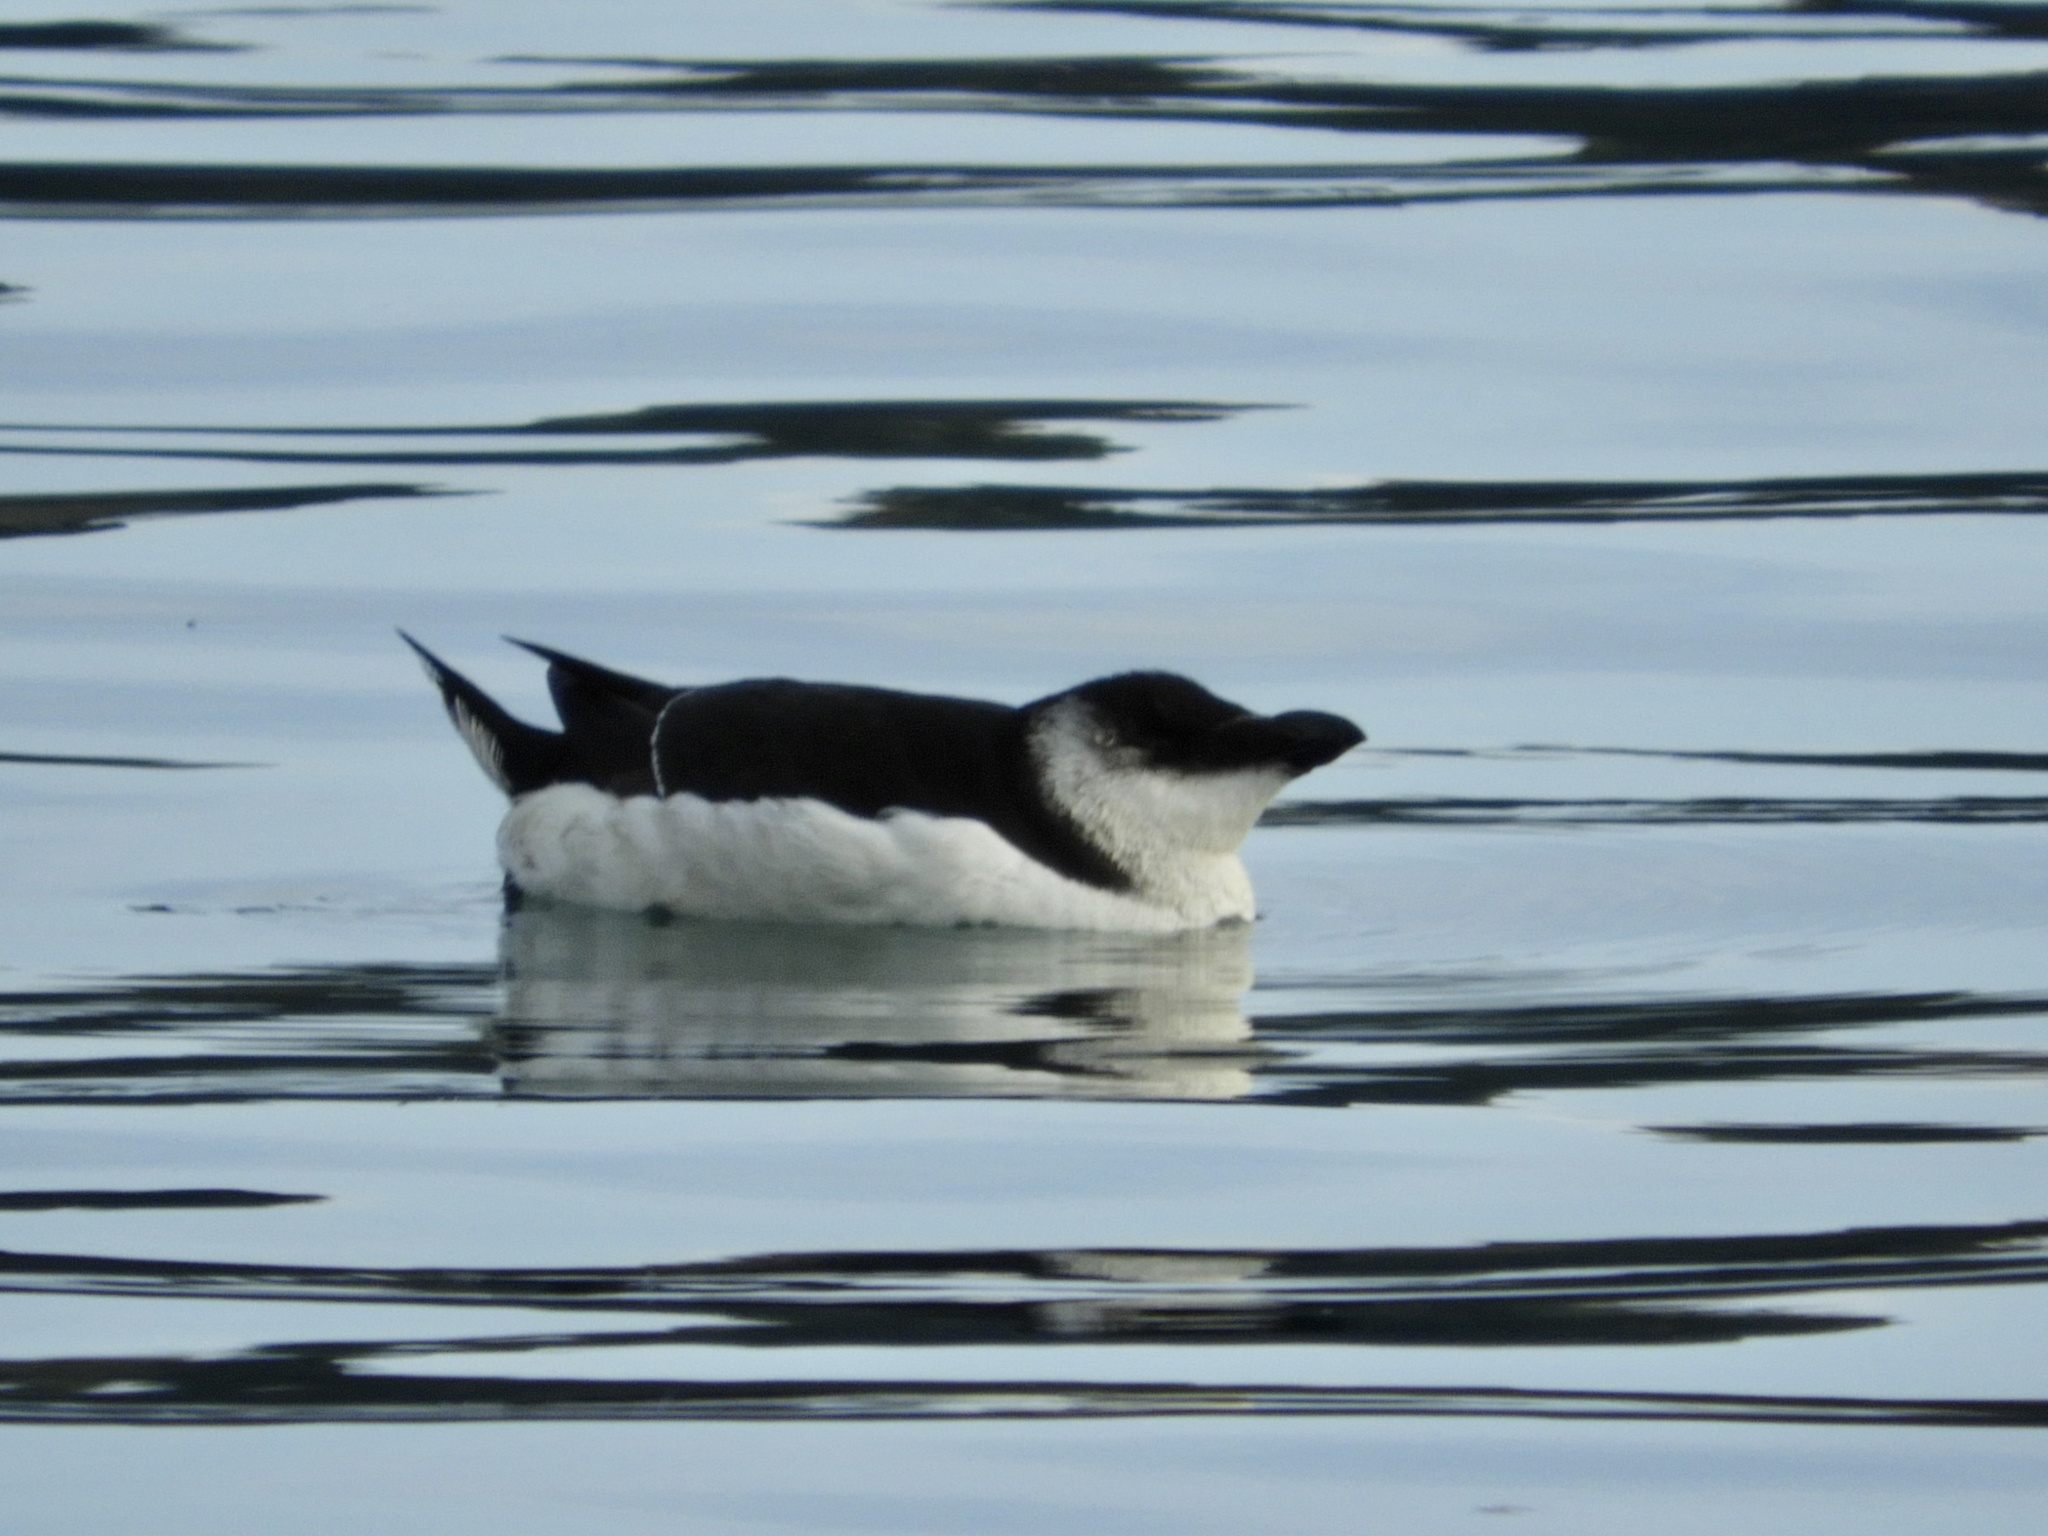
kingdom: Animalia
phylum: Chordata
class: Aves
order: Charadriiformes
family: Alcidae
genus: Alca
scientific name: Alca torda
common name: Razorbill
